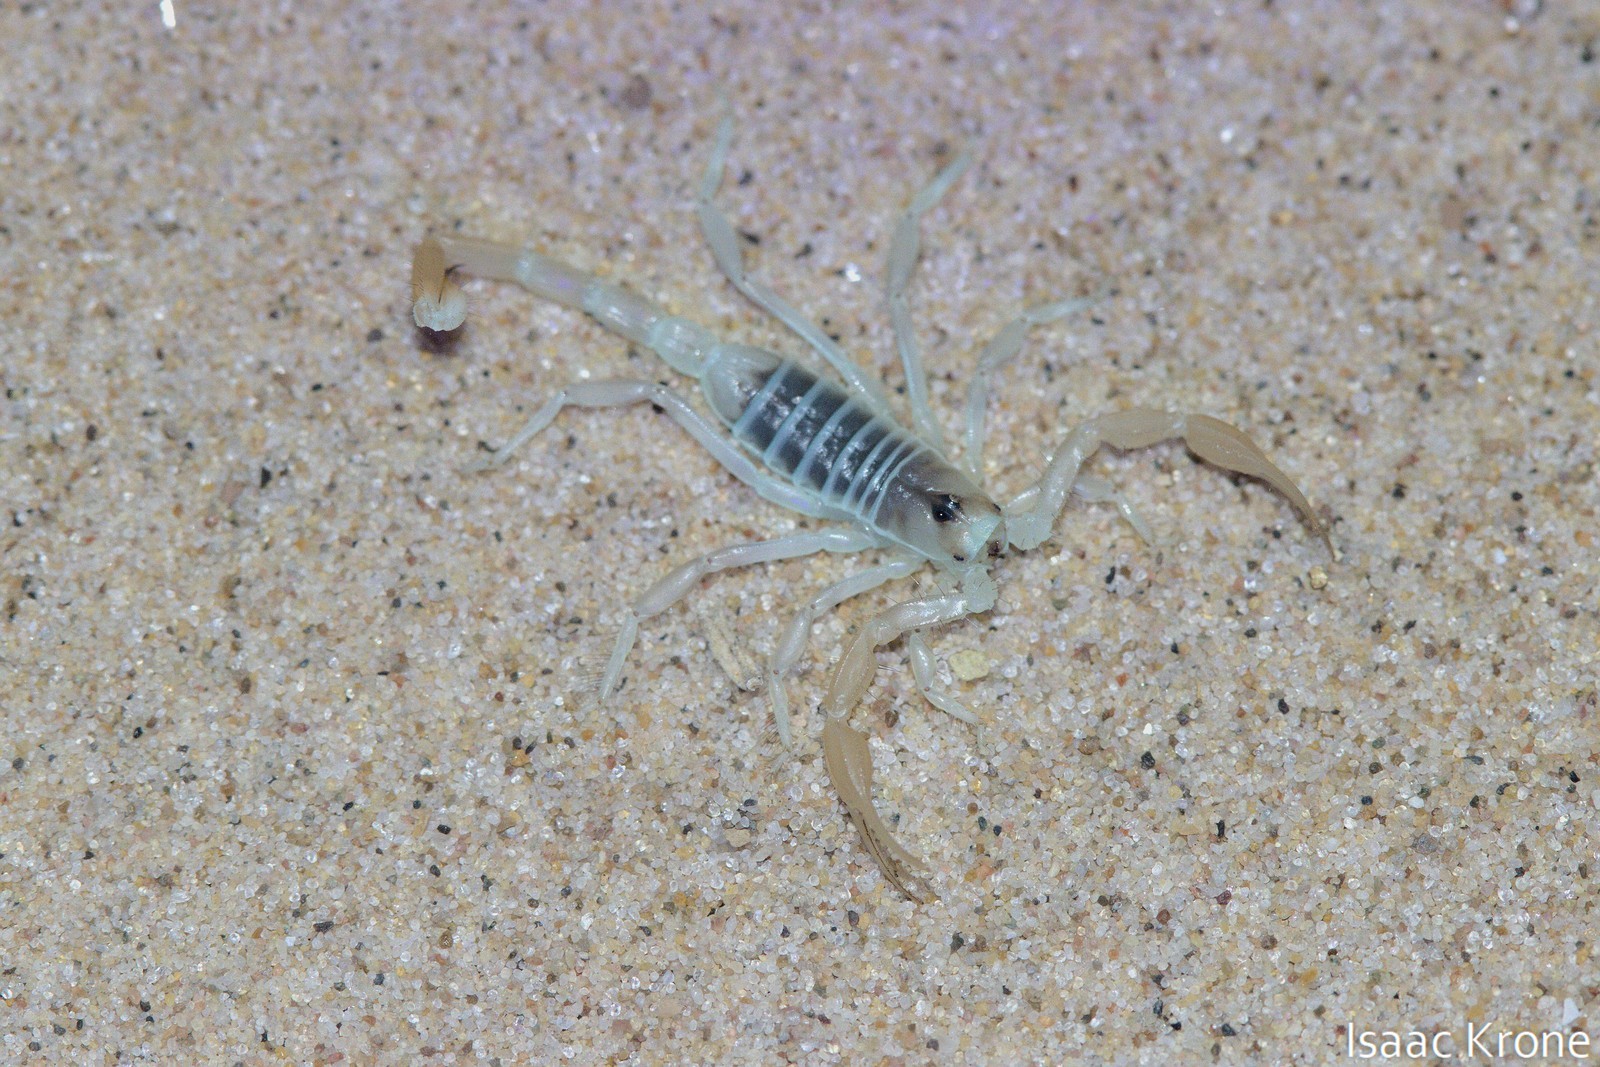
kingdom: Animalia
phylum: Arthropoda
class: Arachnida
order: Scorpiones
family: Vaejovidae
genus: Smeringurus
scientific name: Smeringurus mesaensis
